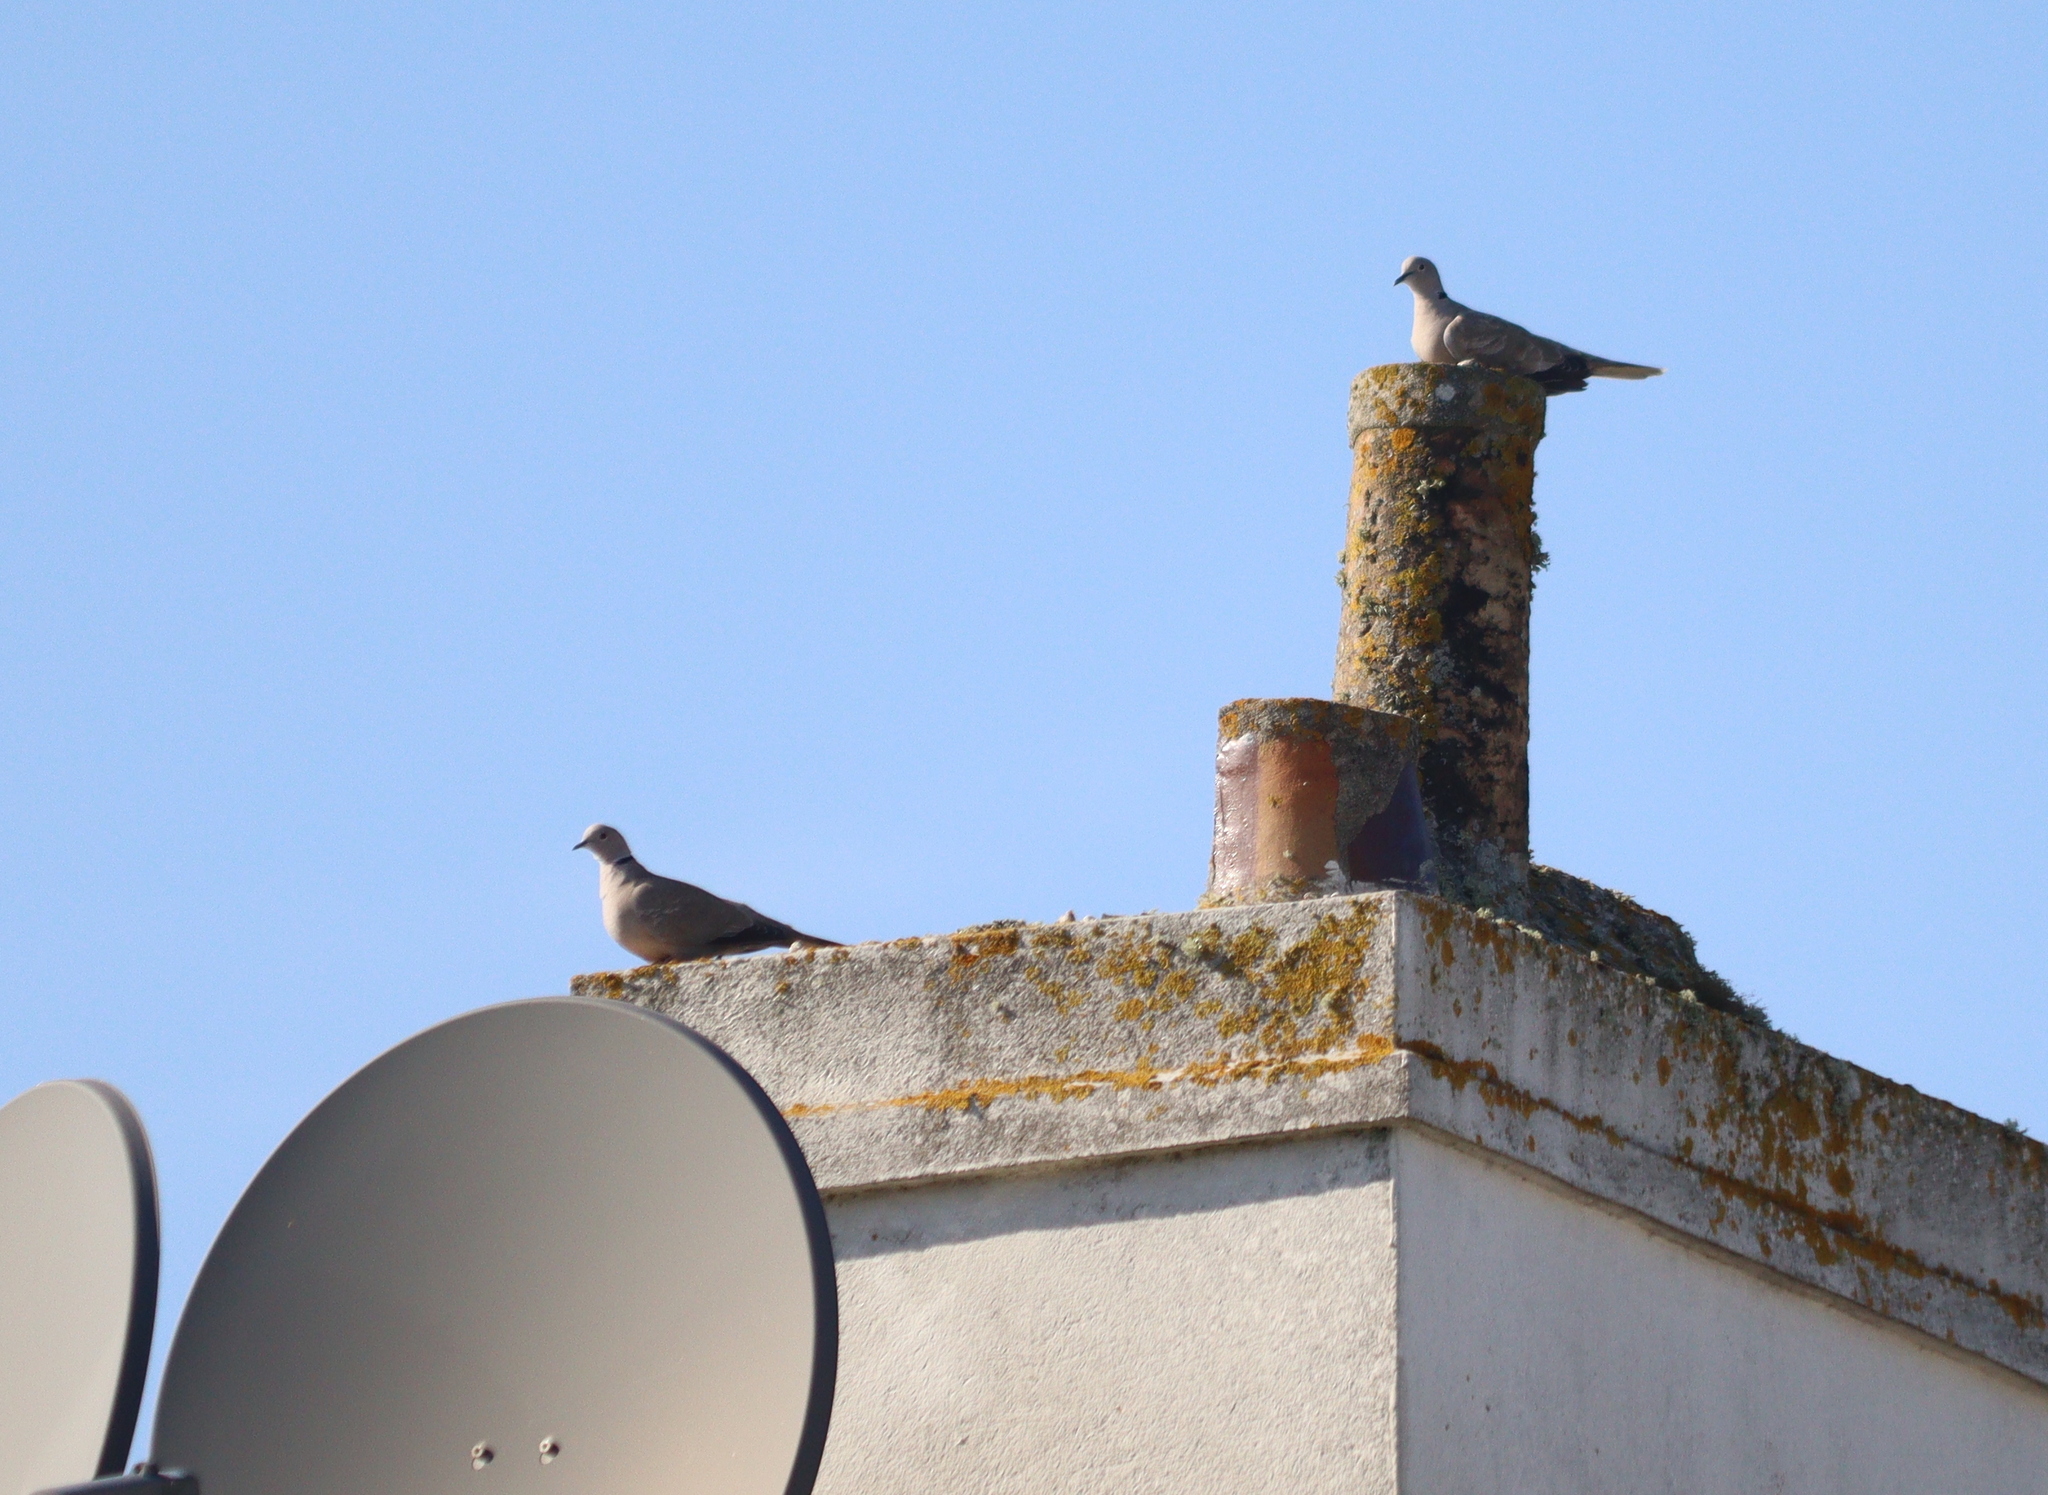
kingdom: Animalia
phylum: Chordata
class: Aves
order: Columbiformes
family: Columbidae
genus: Streptopelia
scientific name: Streptopelia decaocto
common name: Eurasian collared dove
